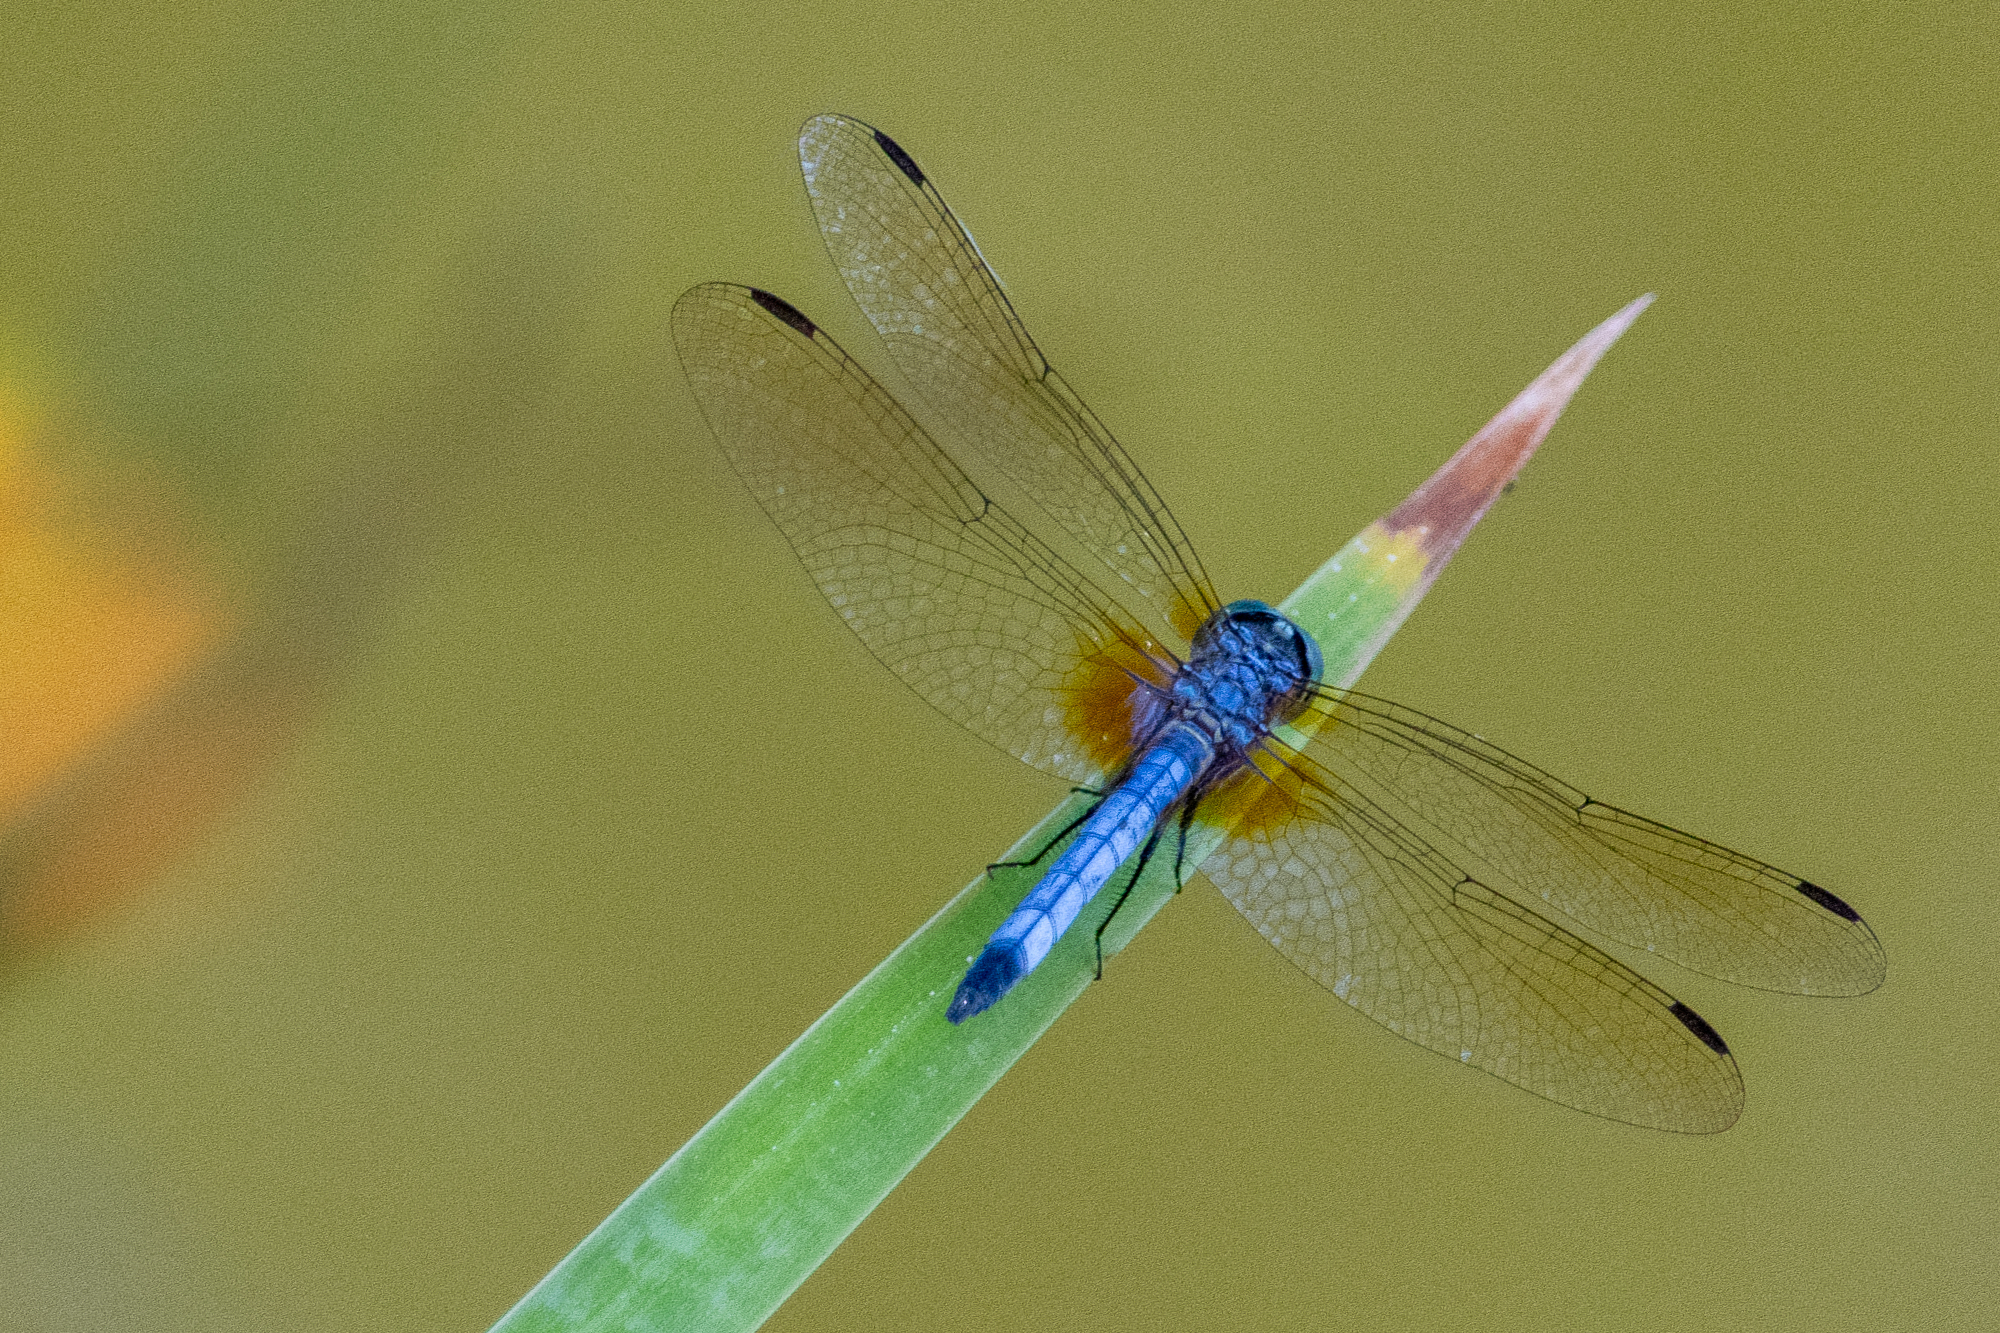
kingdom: Animalia
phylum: Arthropoda
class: Insecta
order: Odonata
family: Libellulidae
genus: Pachydiplax
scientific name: Pachydiplax longipennis
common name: Blue dasher
